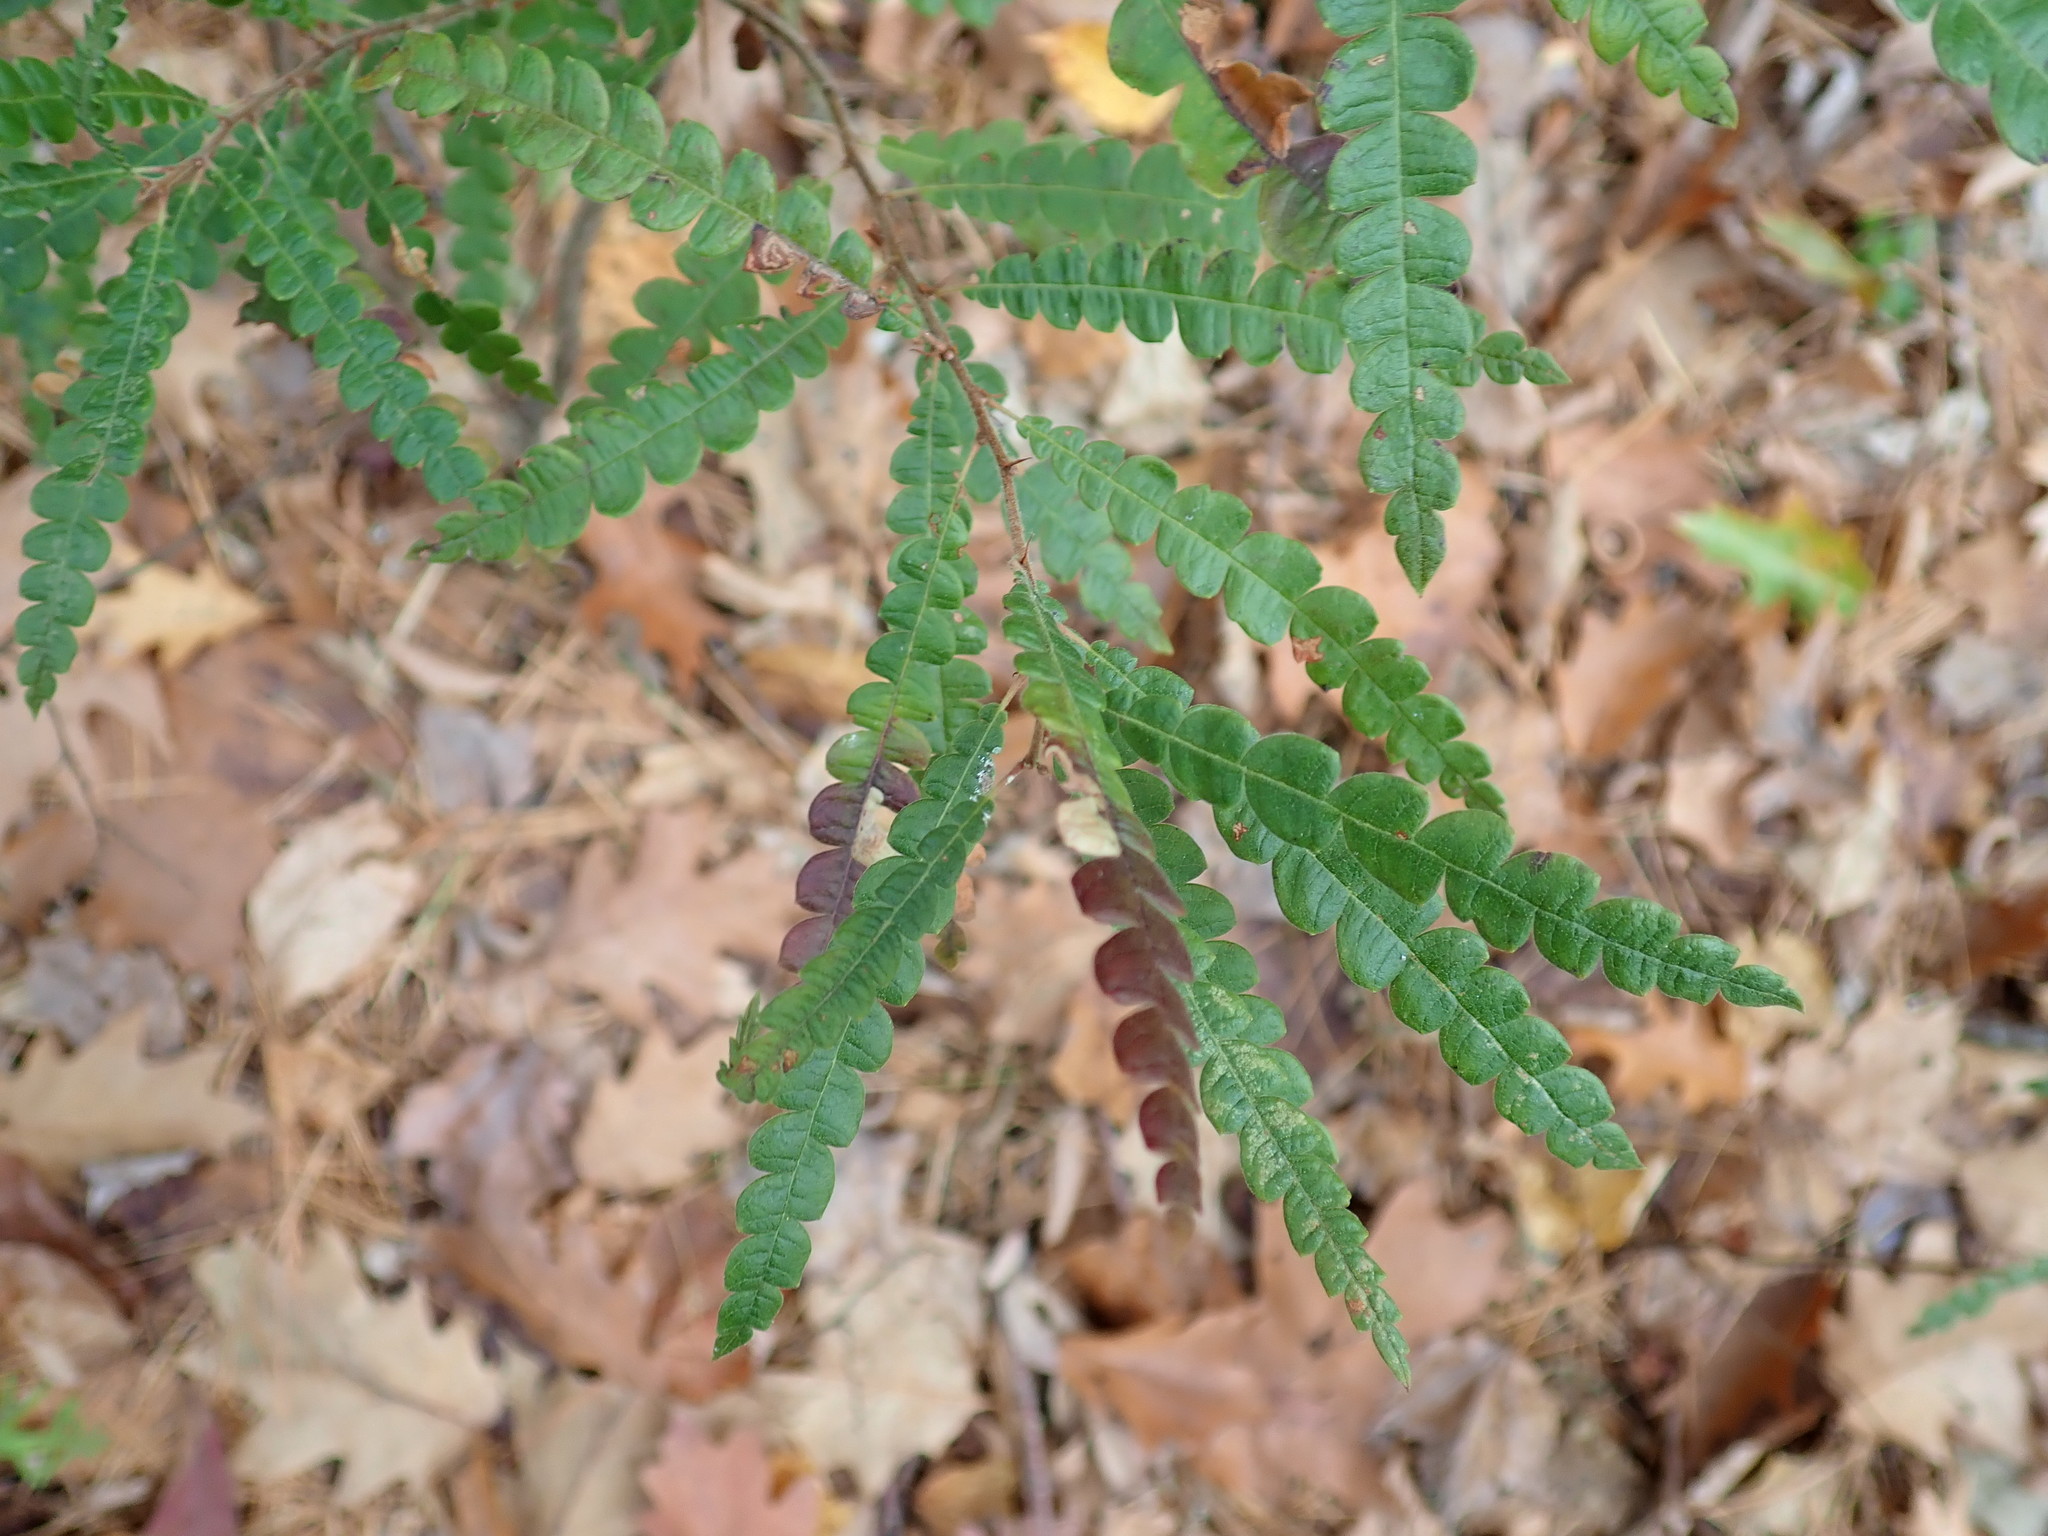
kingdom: Plantae
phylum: Tracheophyta
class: Magnoliopsida
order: Fagales
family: Myricaceae
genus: Comptonia
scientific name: Comptonia peregrina
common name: Sweet-fern
